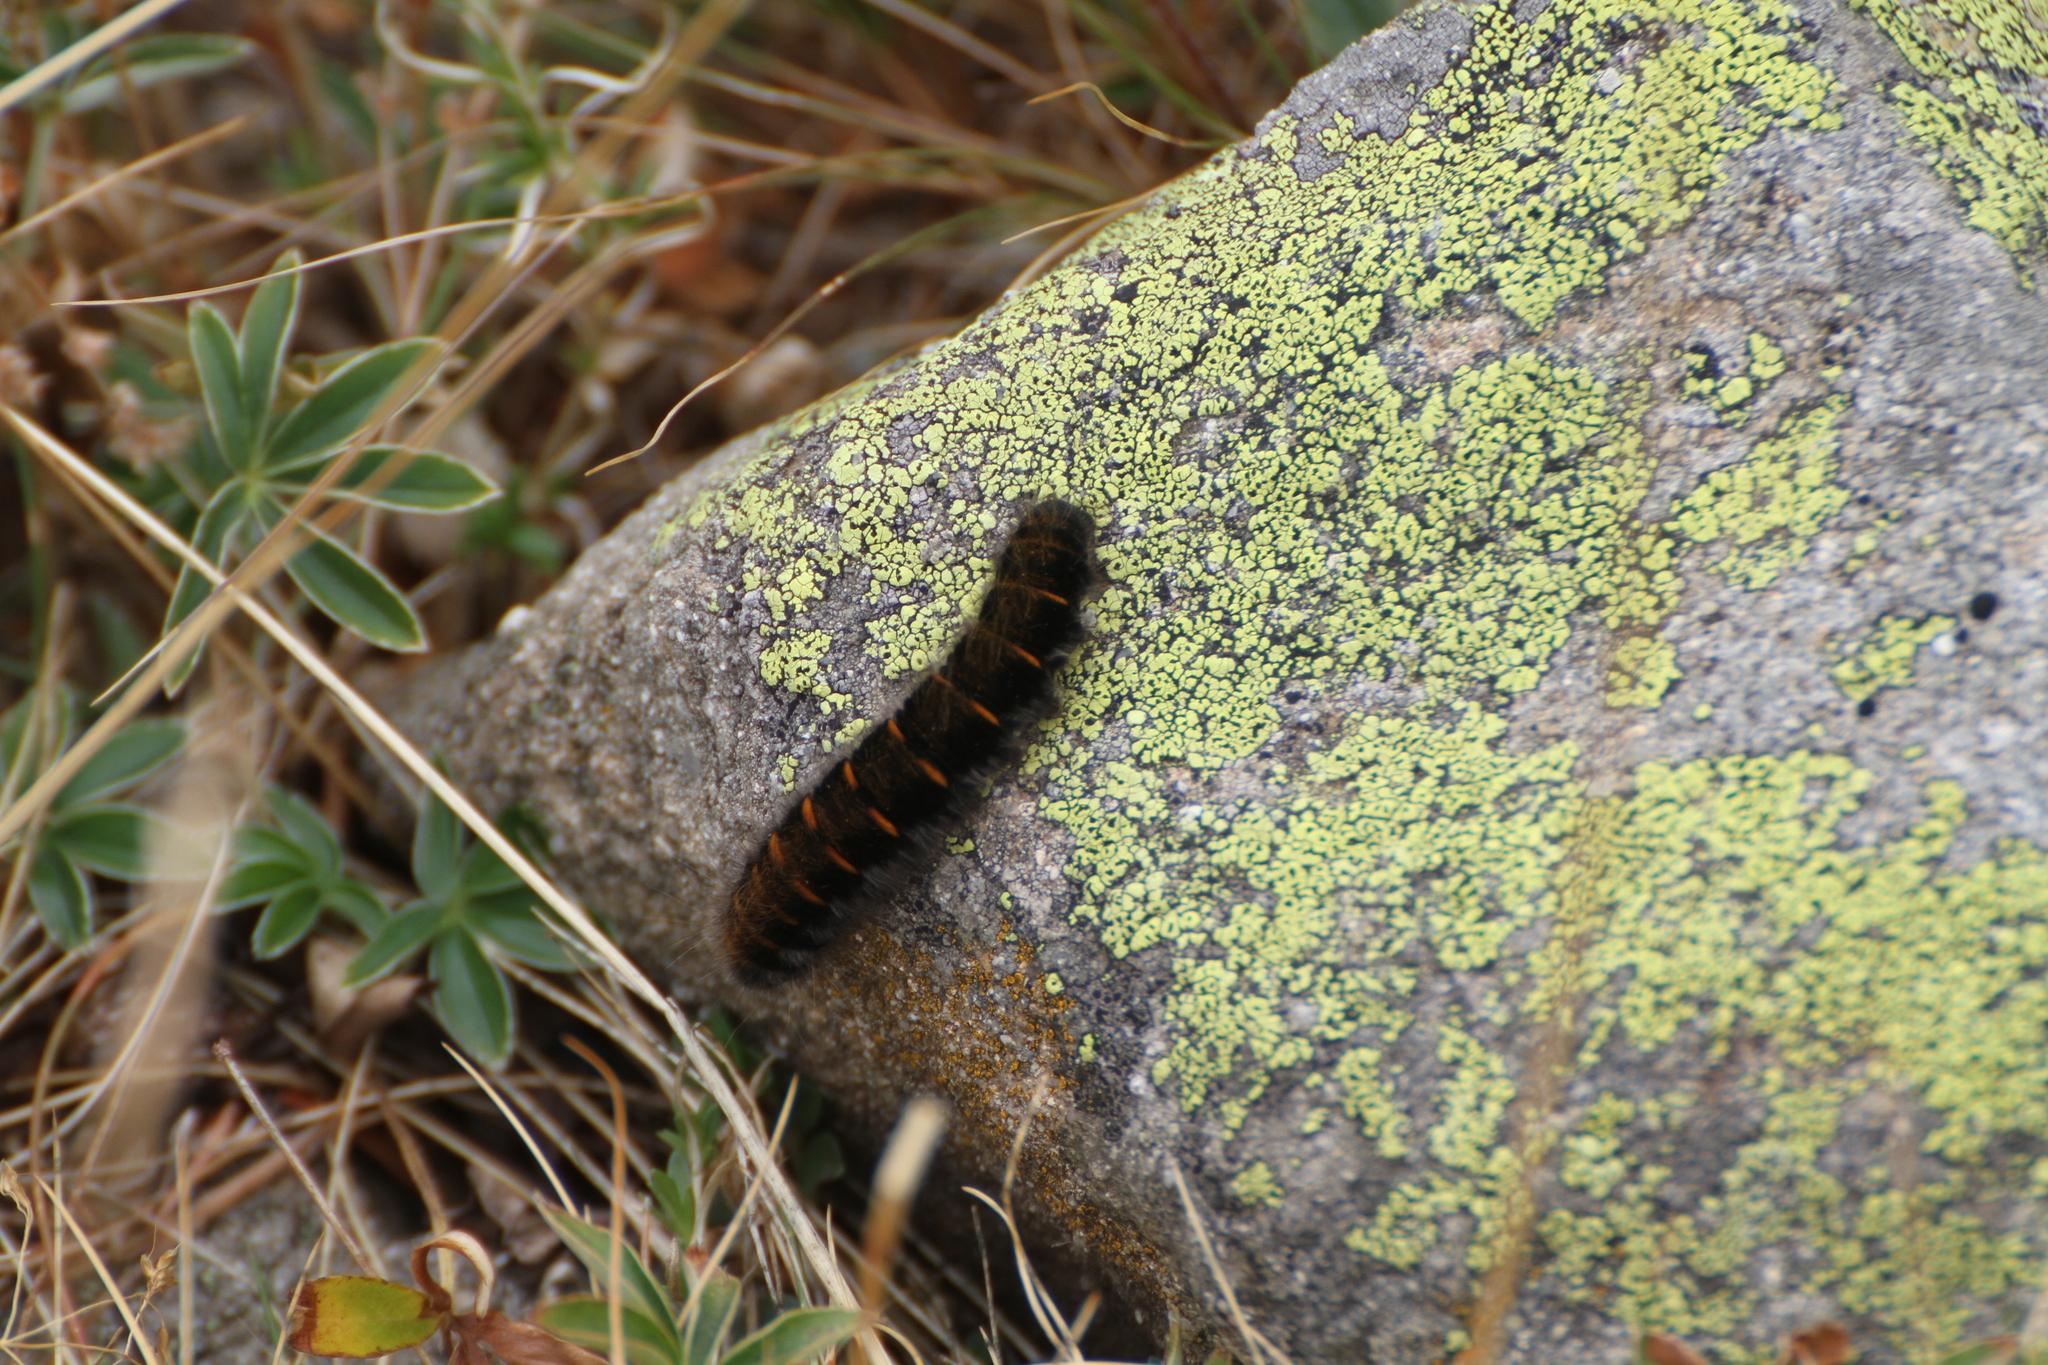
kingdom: Animalia
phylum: Arthropoda
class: Insecta
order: Lepidoptera
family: Lasiocampidae
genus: Macrothylacia
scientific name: Macrothylacia rubi
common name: Fox moth
